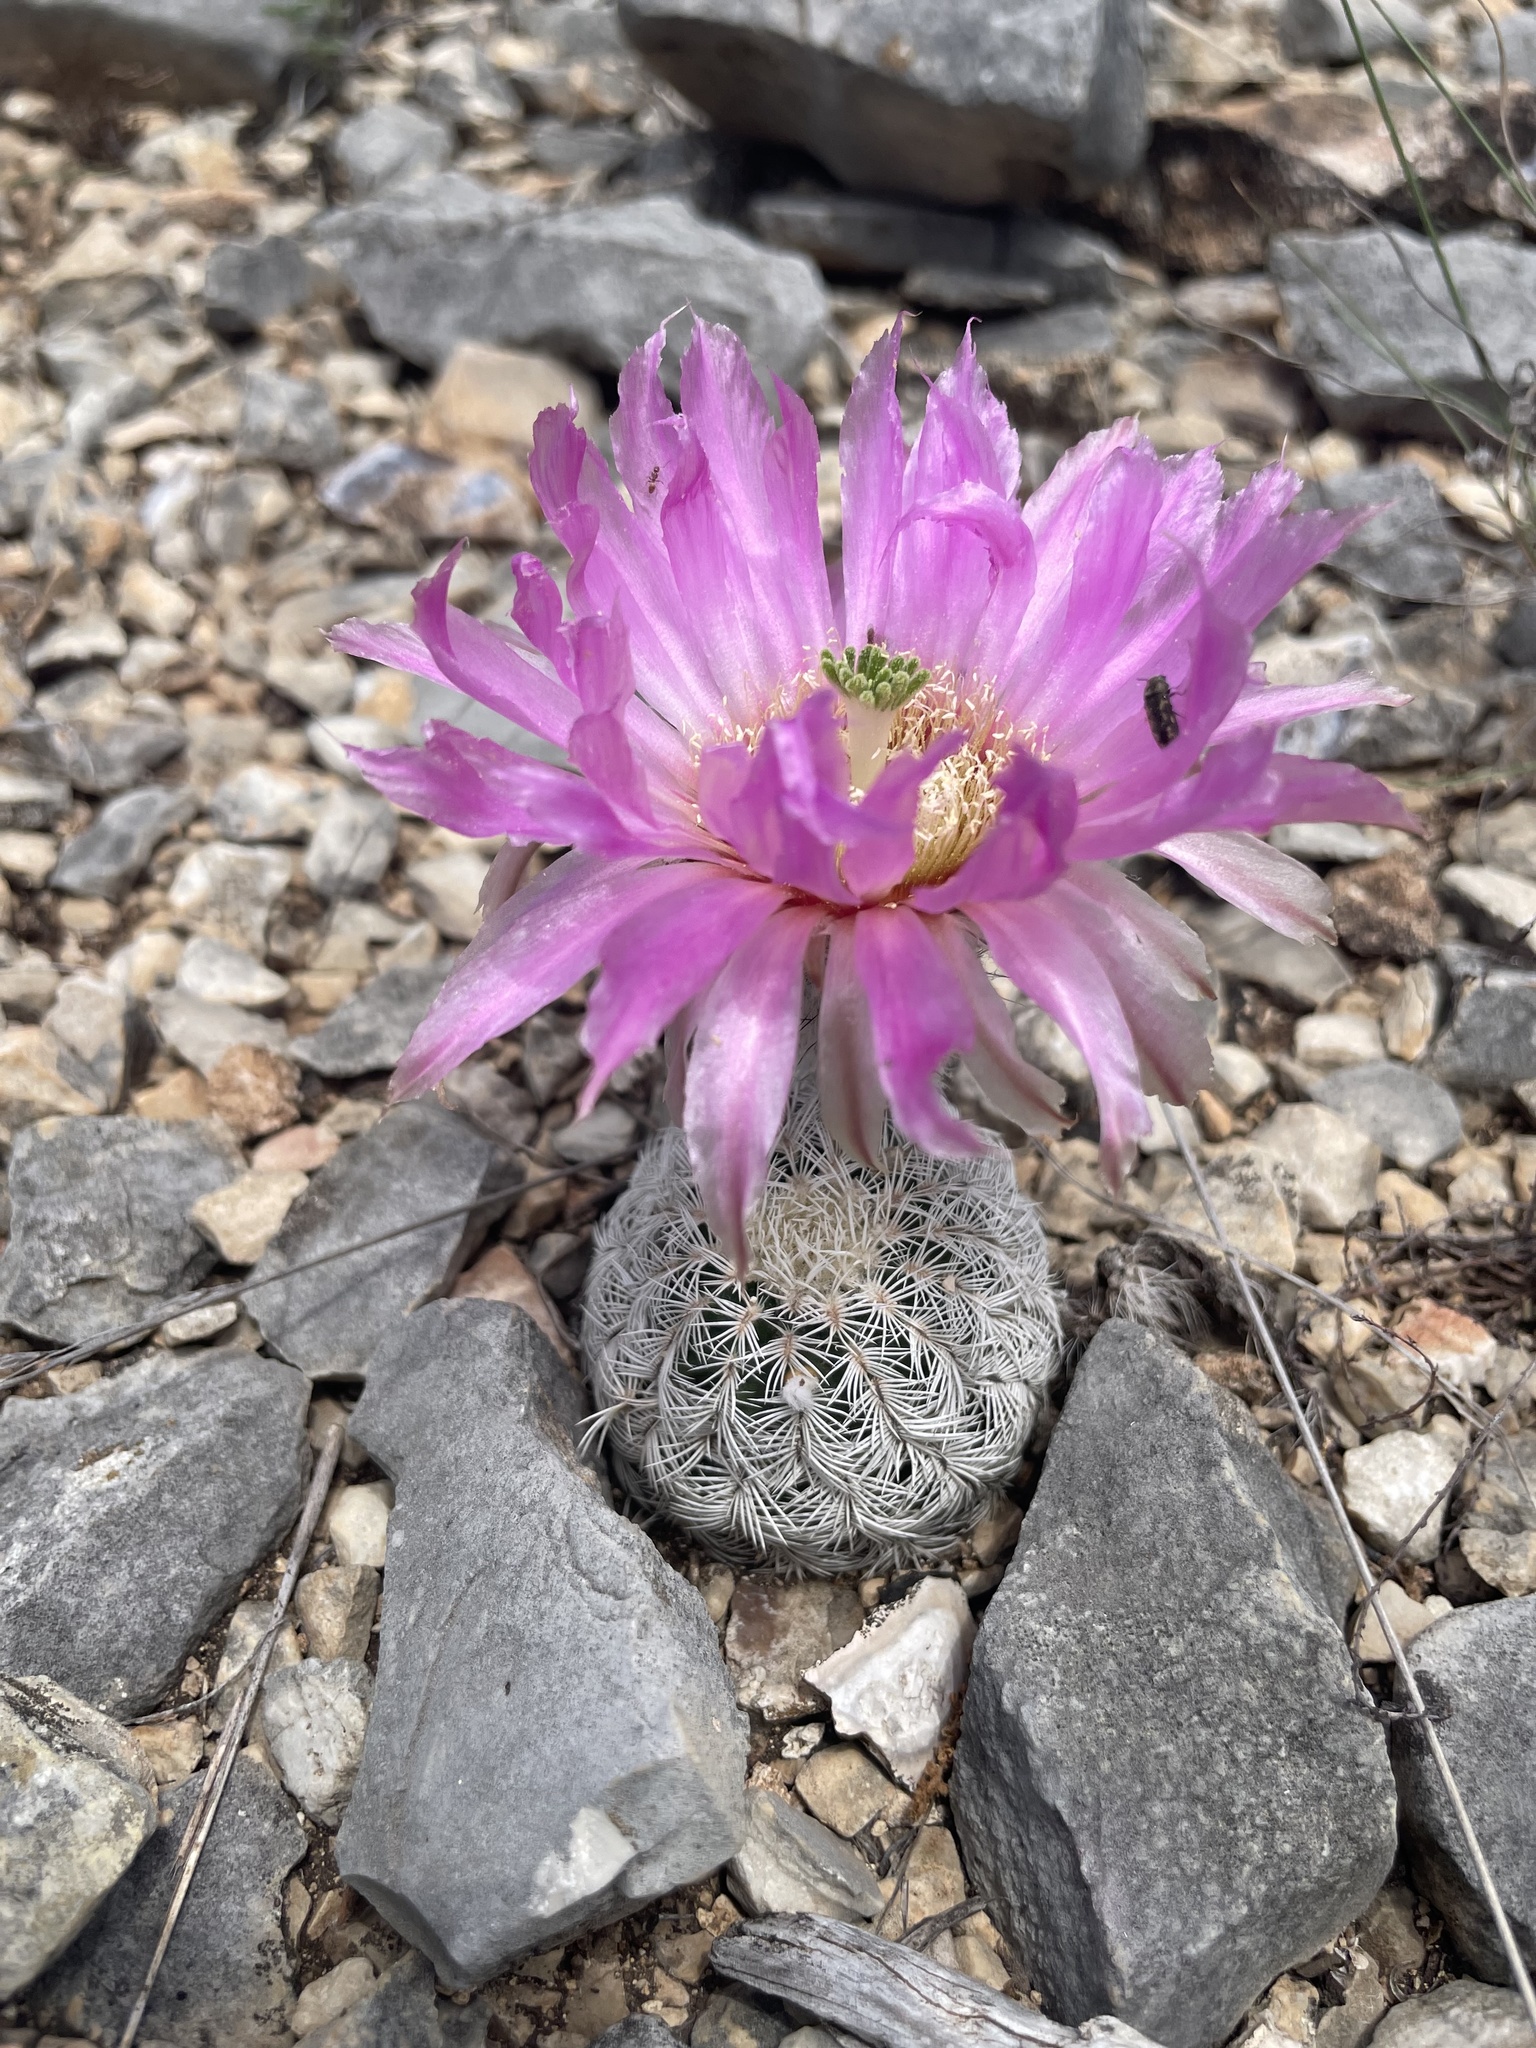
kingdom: Plantae
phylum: Tracheophyta
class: Magnoliopsida
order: Caryophyllales
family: Cactaceae
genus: Echinocereus
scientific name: Echinocereus reichenbachii
